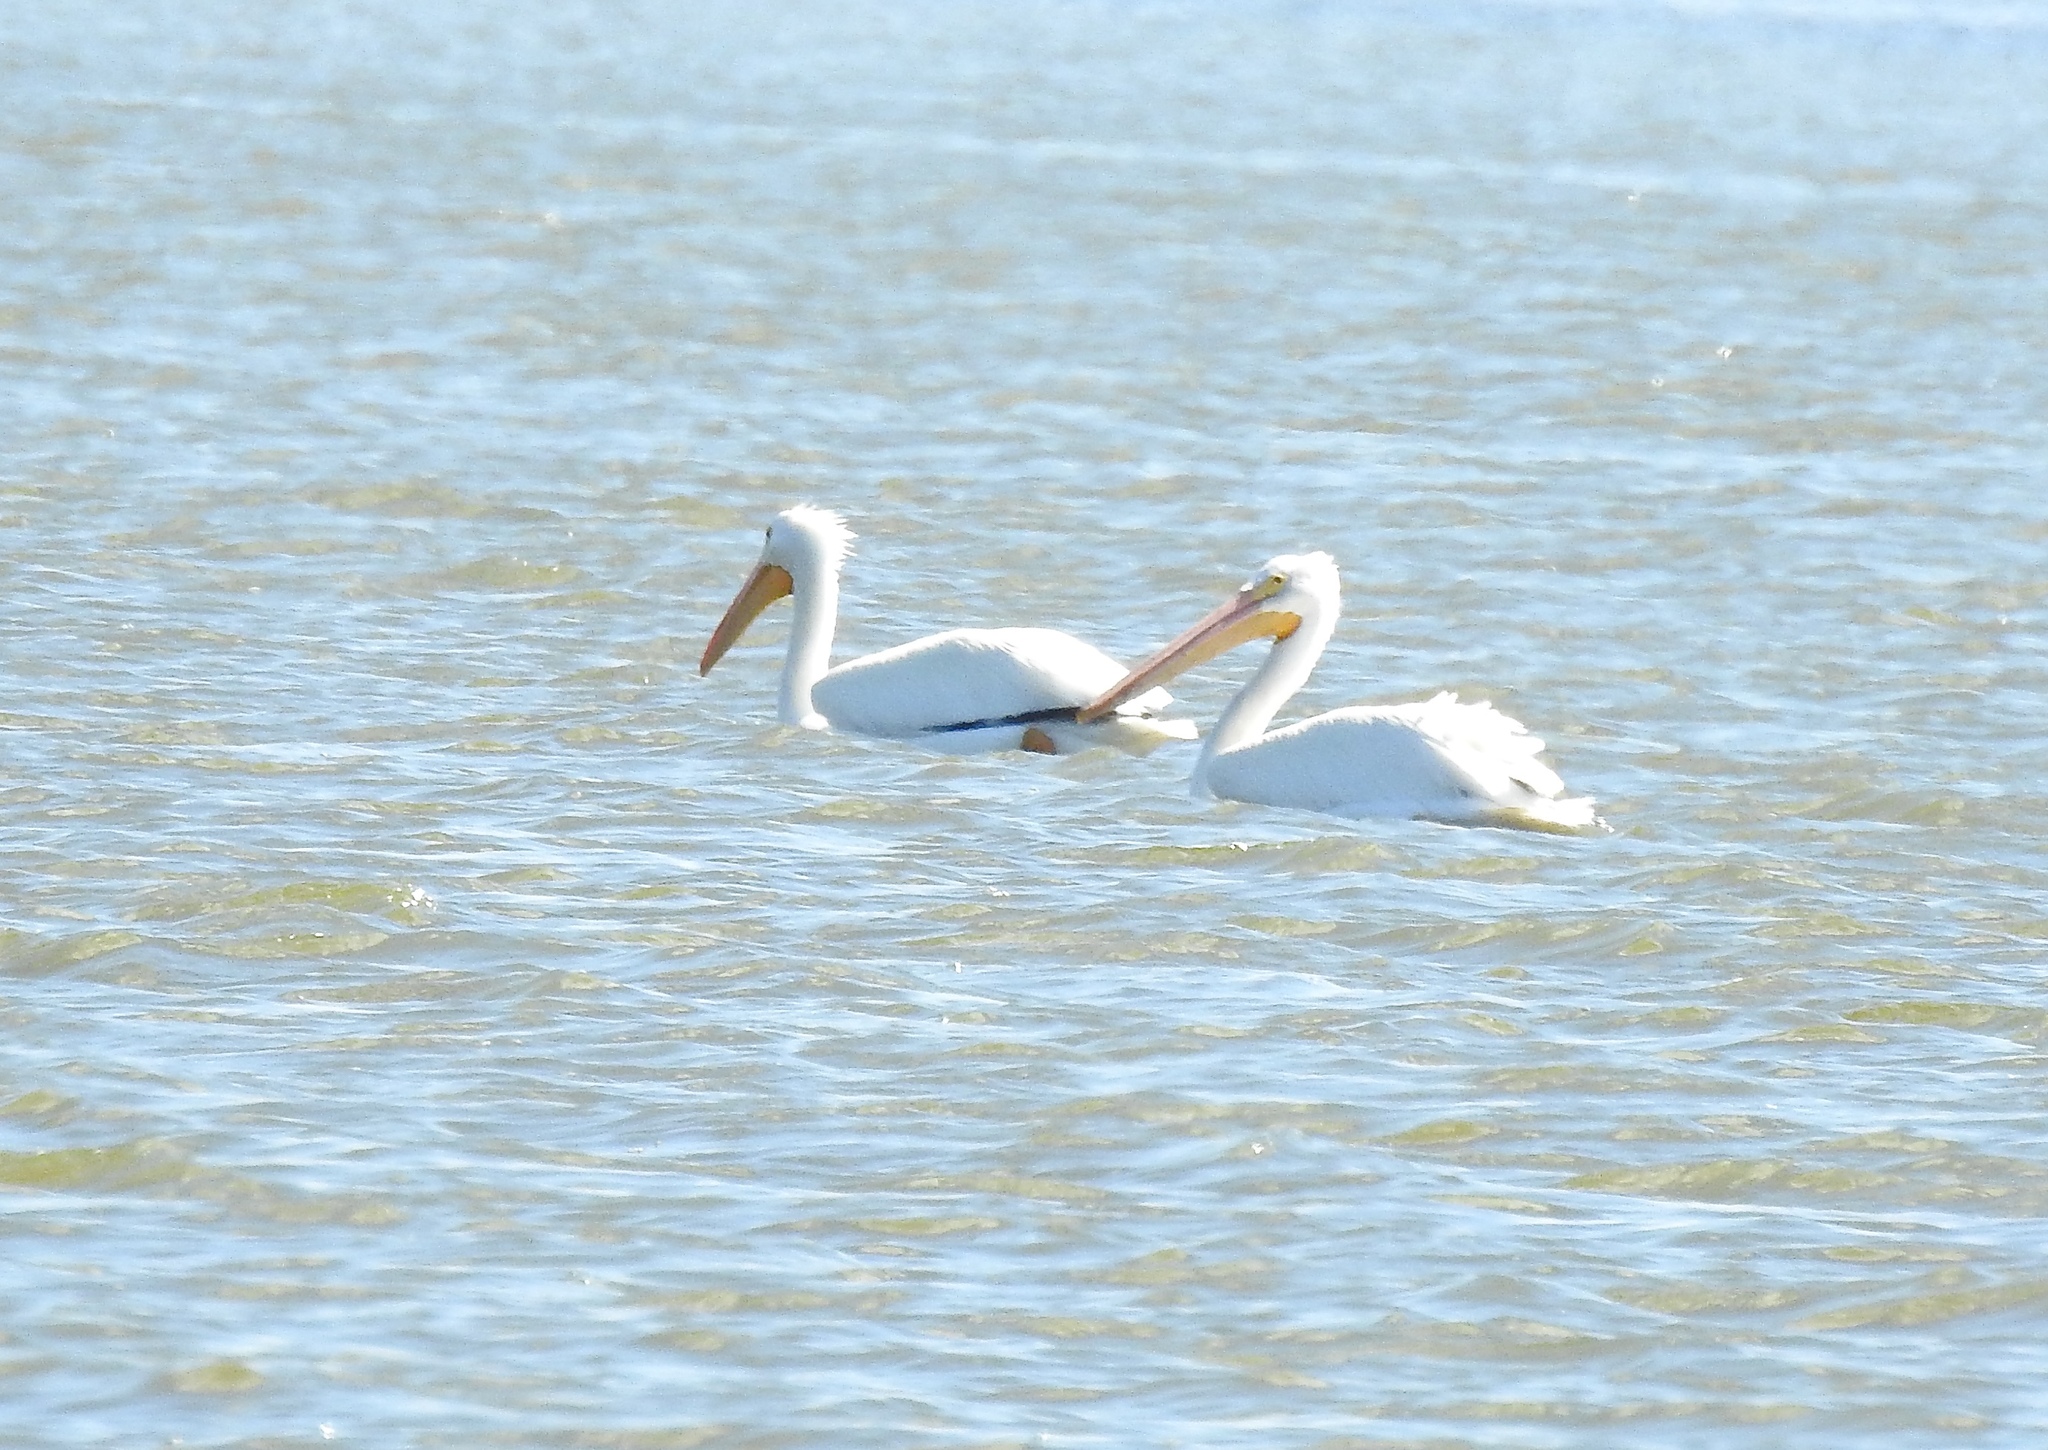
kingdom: Animalia
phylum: Chordata
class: Aves
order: Pelecaniformes
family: Pelecanidae
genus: Pelecanus
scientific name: Pelecanus erythrorhynchos
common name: American white pelican
